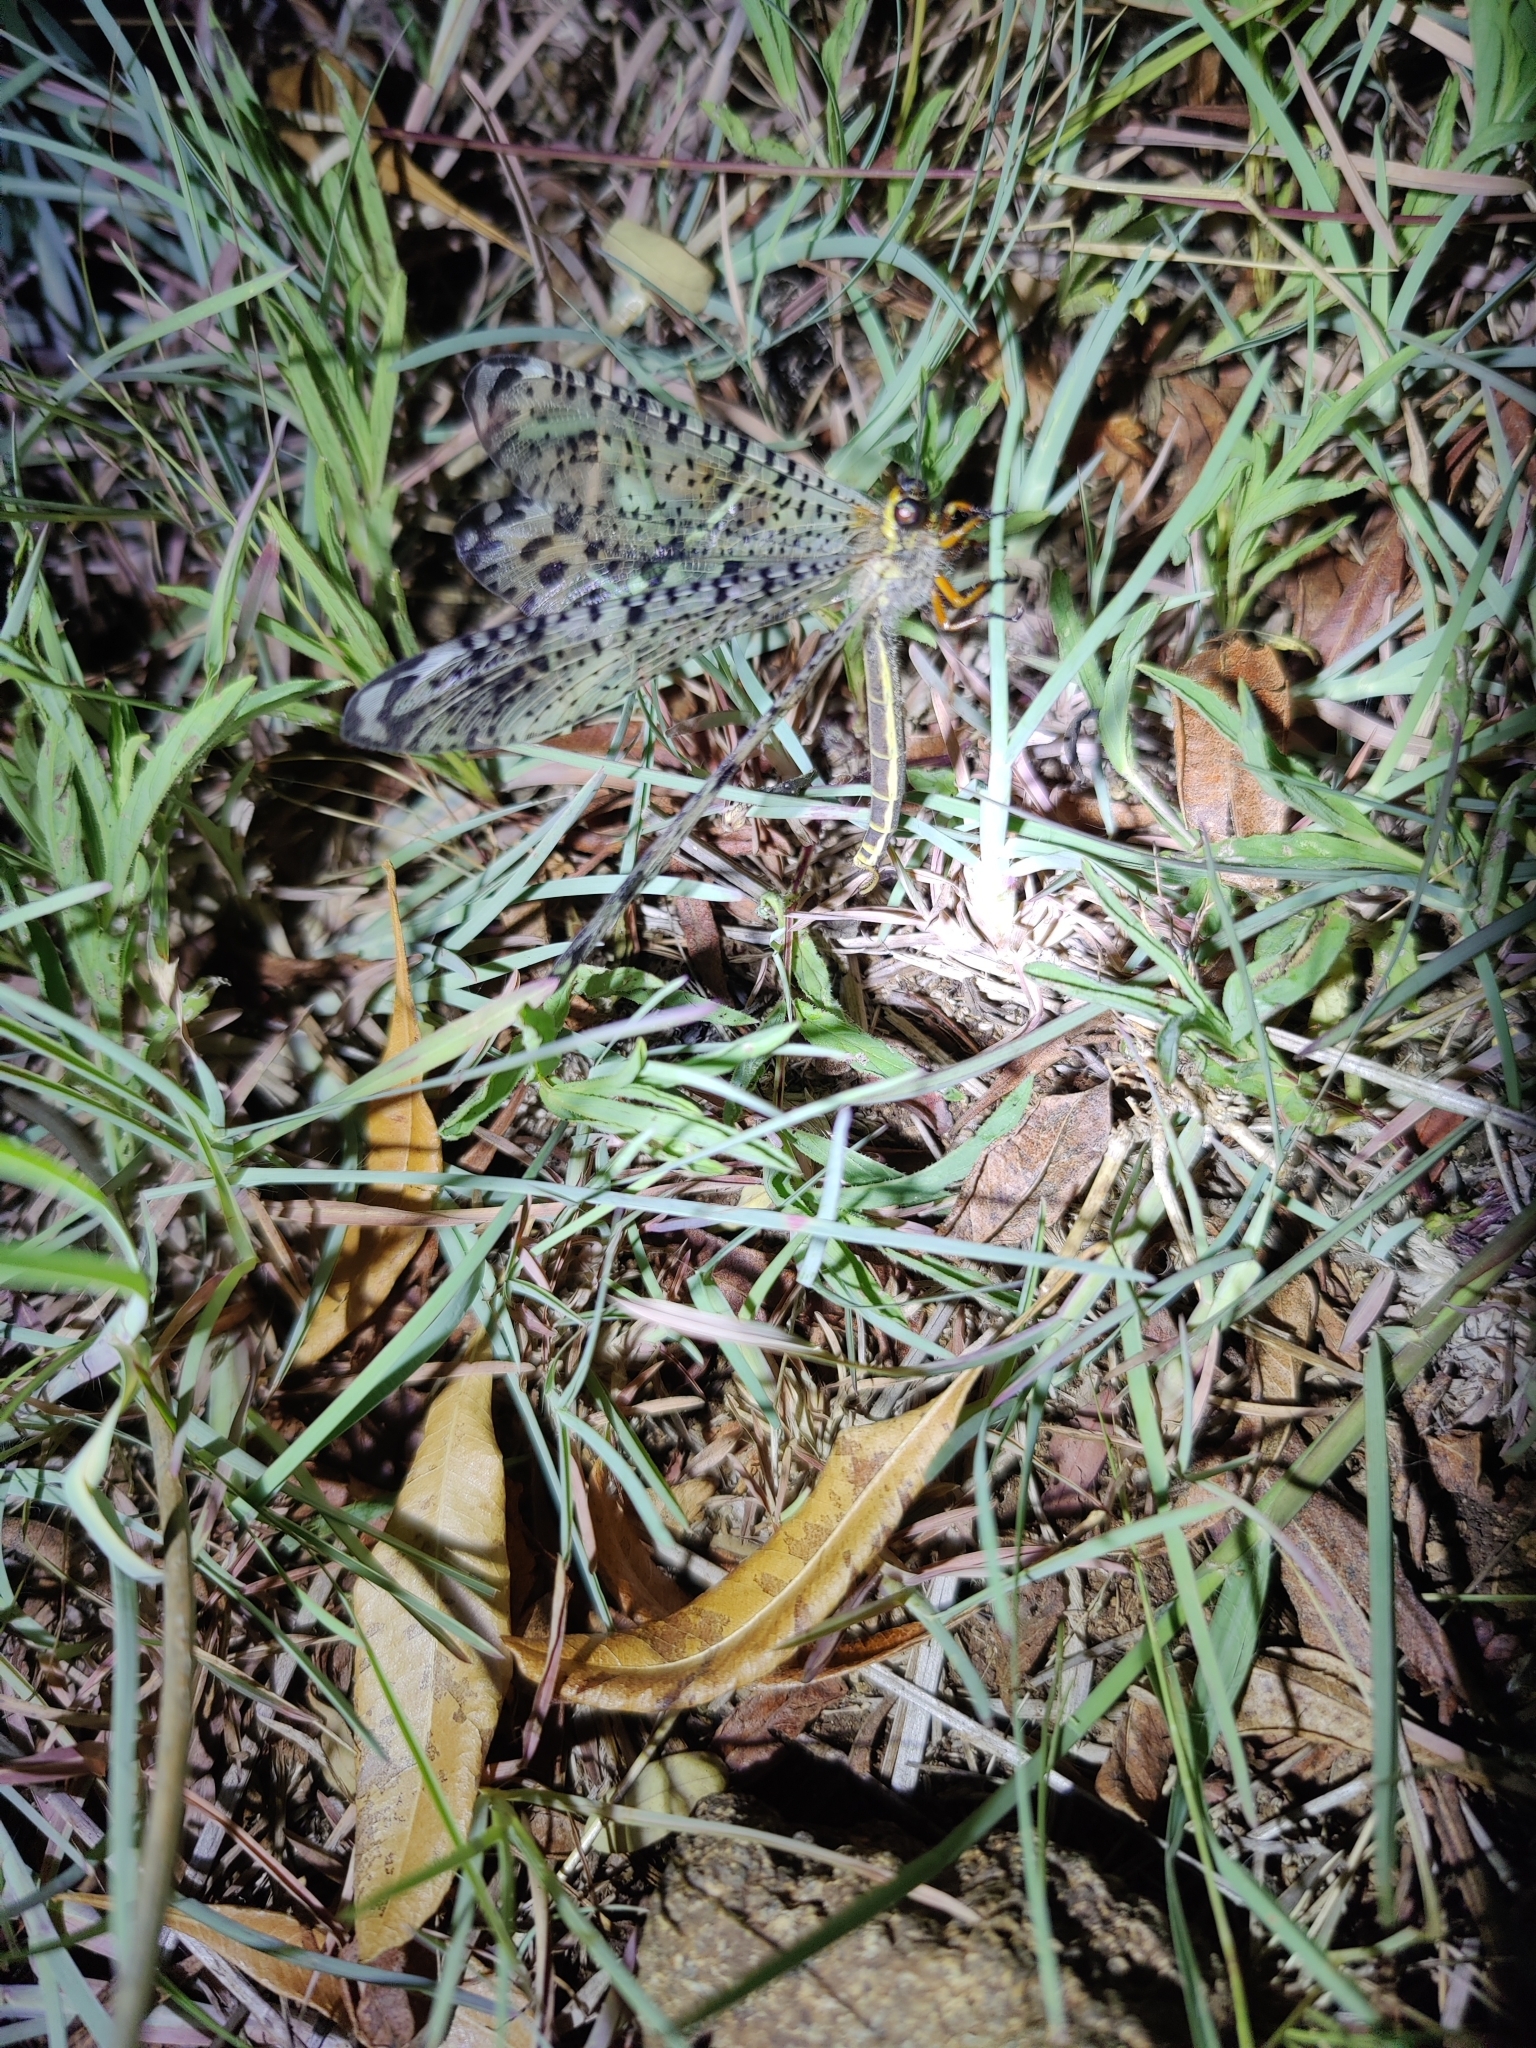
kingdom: Animalia
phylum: Arthropoda
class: Insecta
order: Neuroptera
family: Myrmeleontidae
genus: Indopalpares
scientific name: Indopalpares pardus
